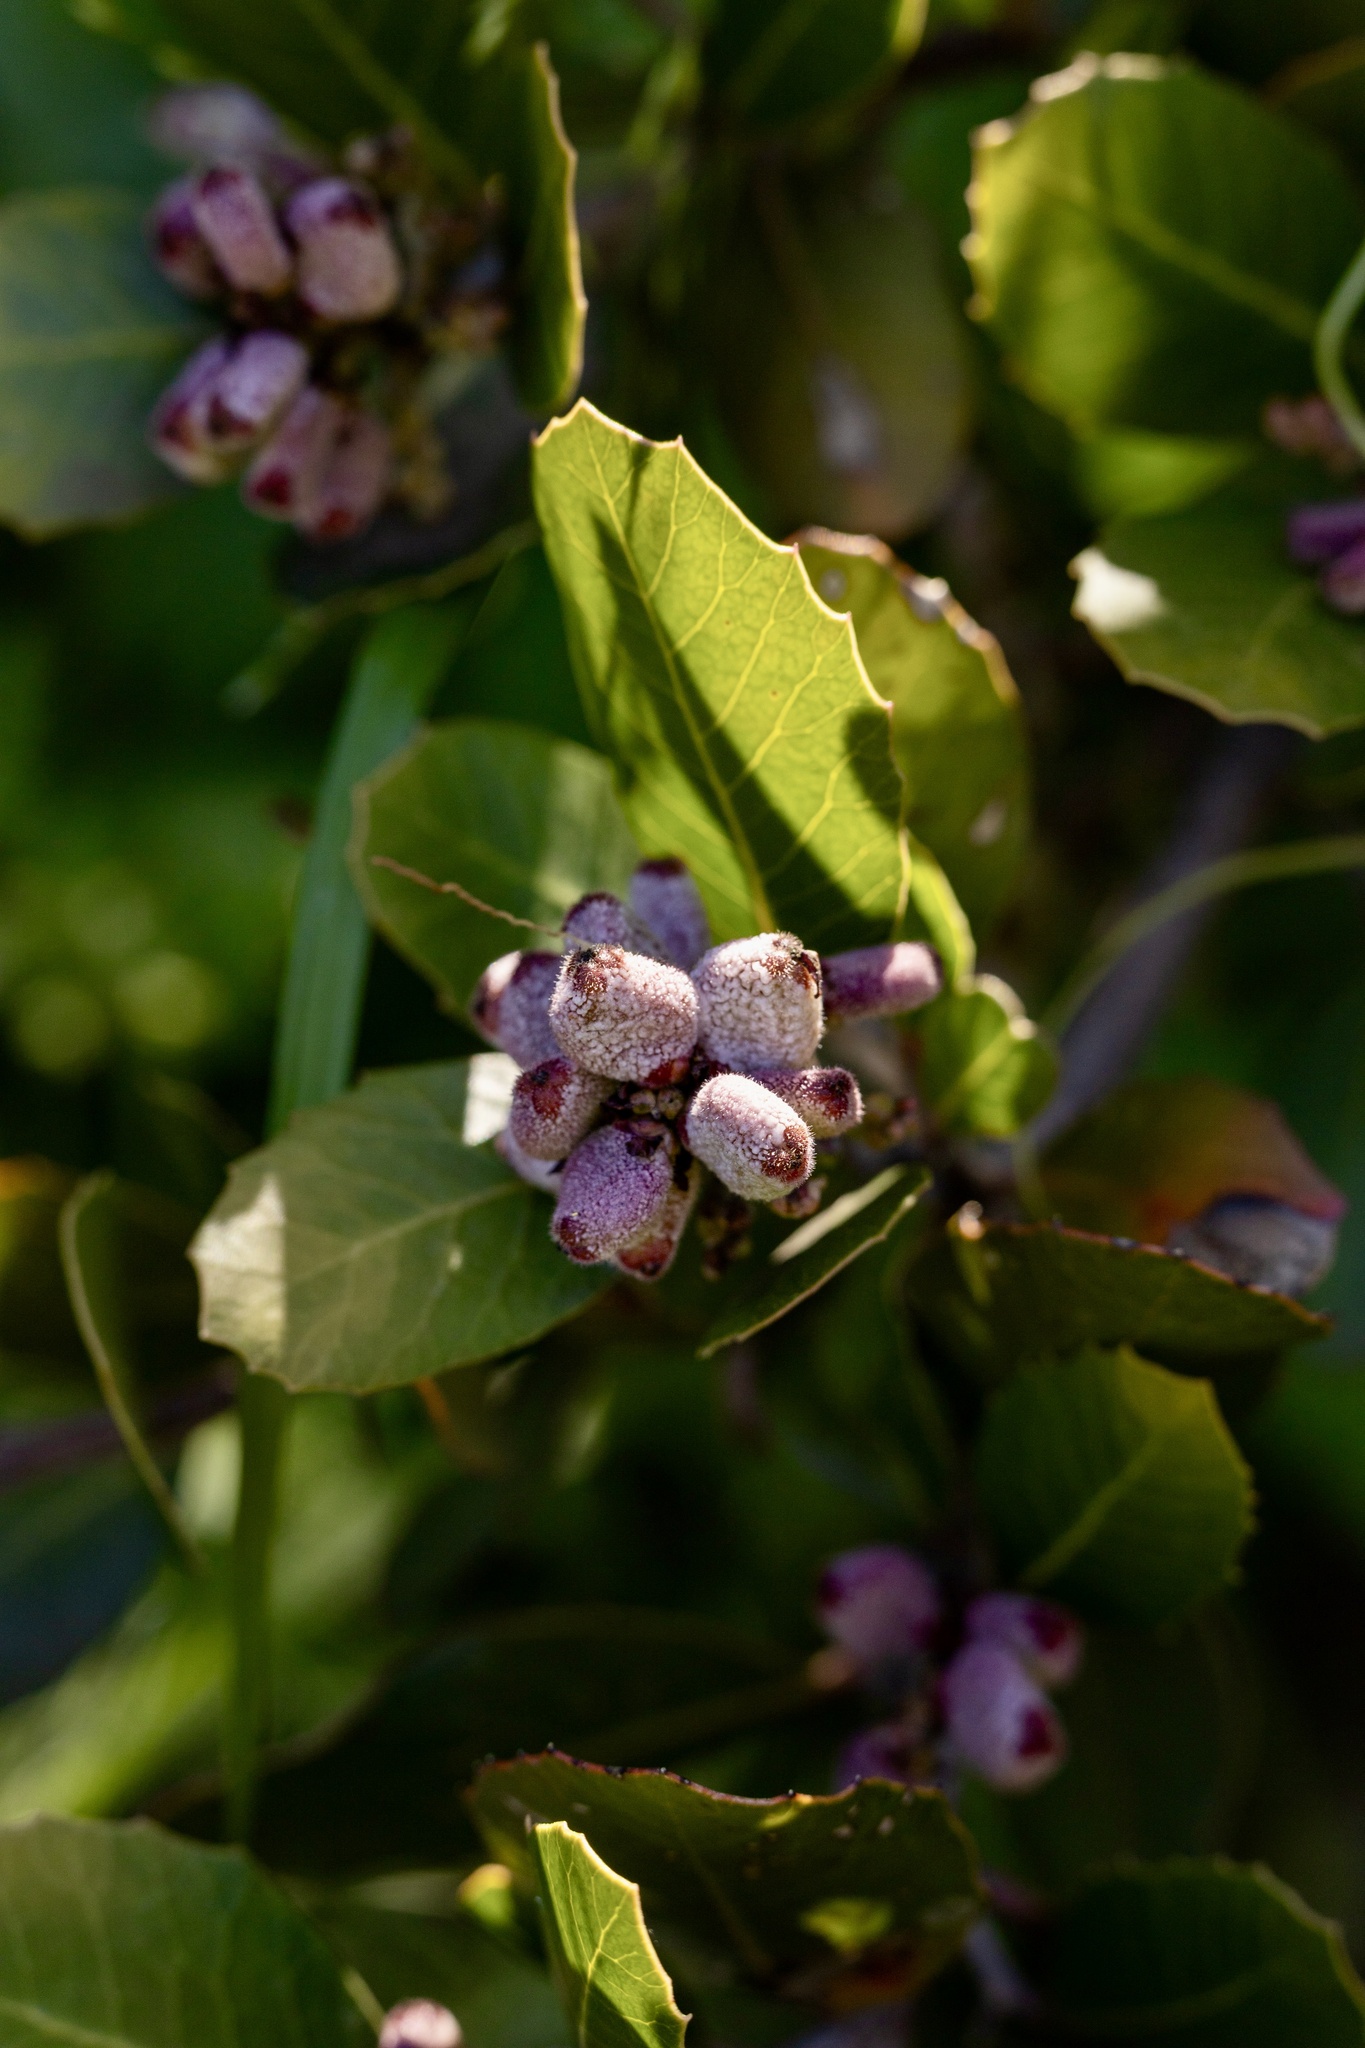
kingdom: Plantae
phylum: Tracheophyta
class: Magnoliopsida
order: Sapindales
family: Anacardiaceae
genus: Rhus
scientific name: Rhus integrifolia
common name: Lemonade sumac
